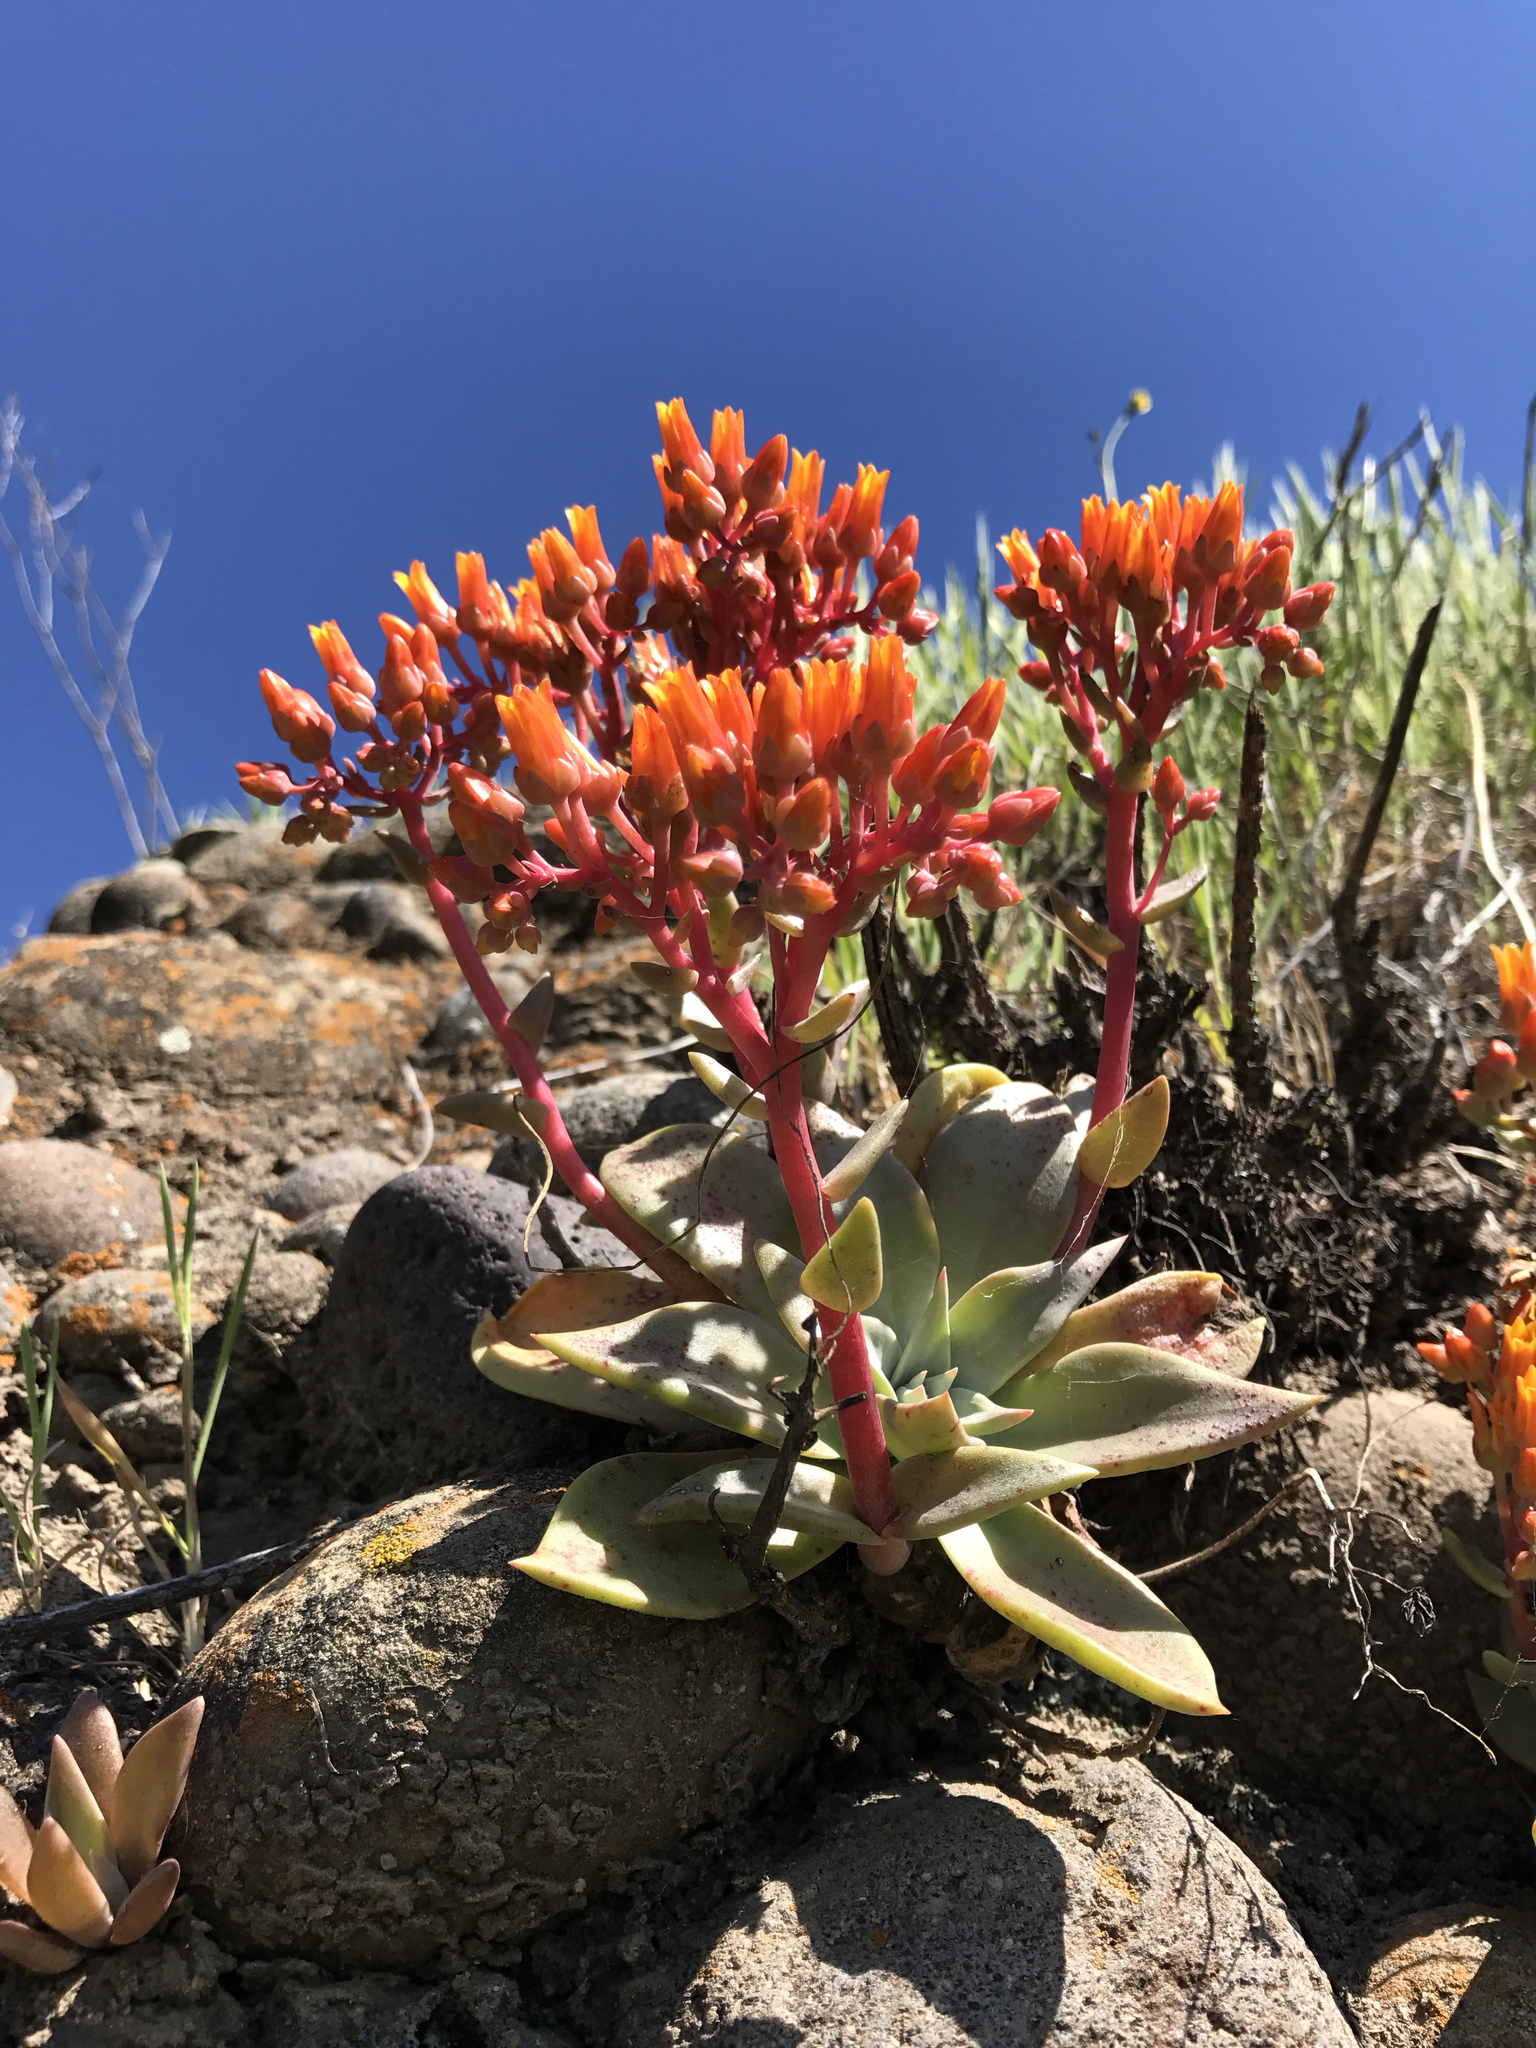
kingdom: Plantae
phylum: Tracheophyta
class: Magnoliopsida
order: Saxifragales
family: Crassulaceae
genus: Dudleya
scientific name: Dudleya cymosa
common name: Canyon dudleya
